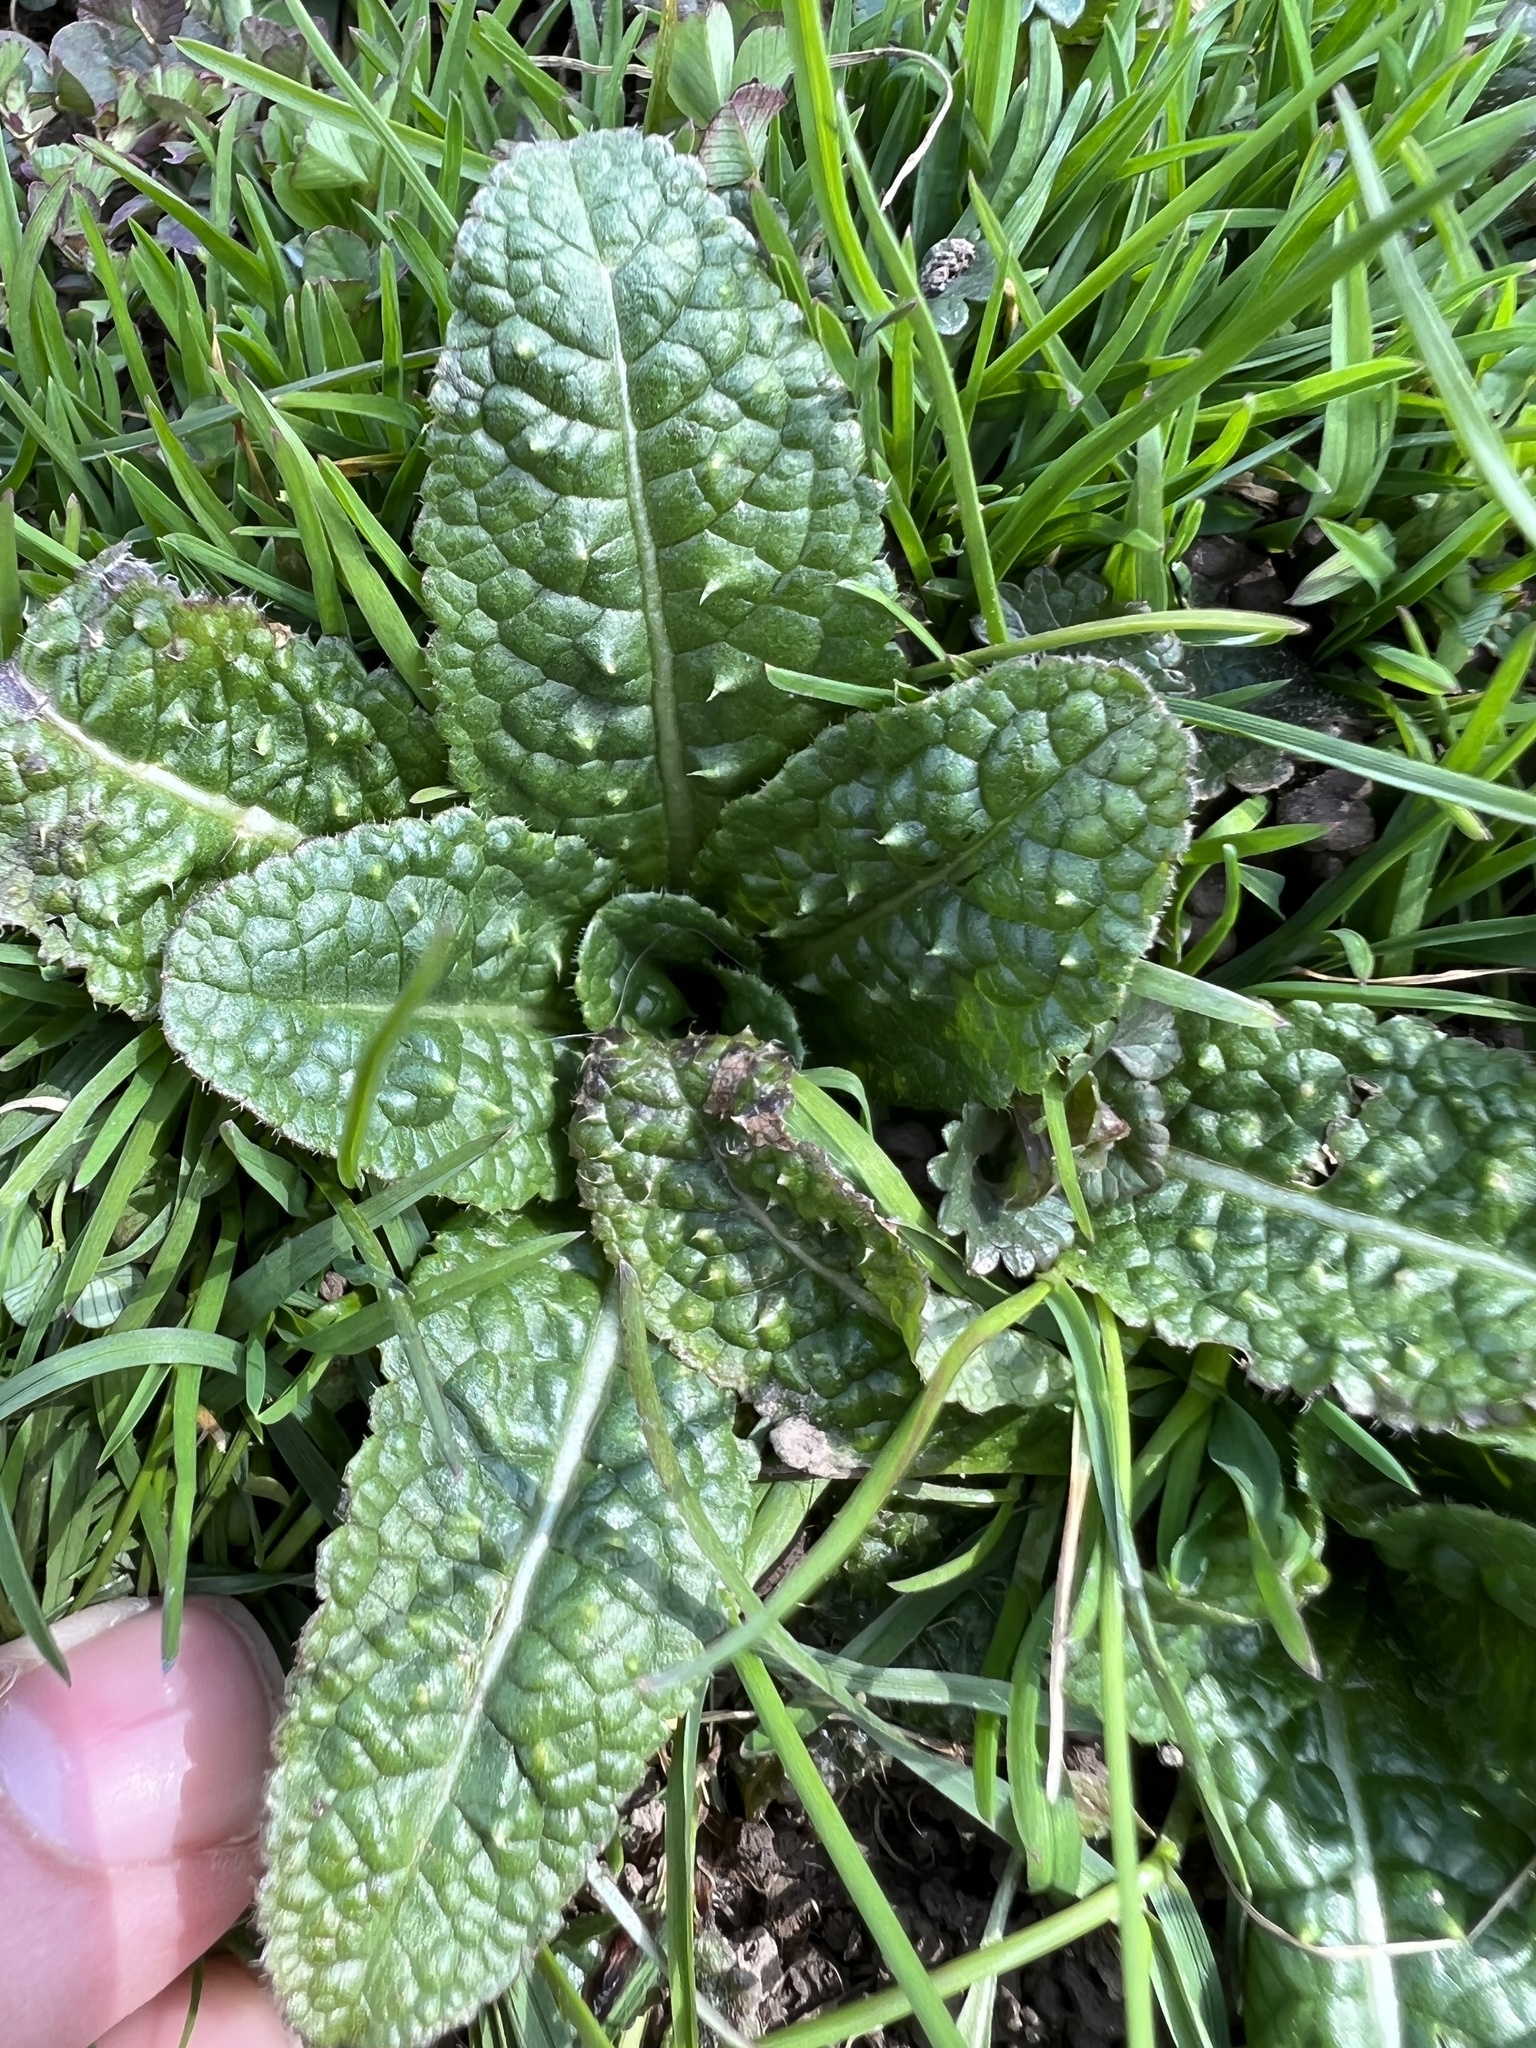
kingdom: Plantae
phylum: Tracheophyta
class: Magnoliopsida
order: Dipsacales
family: Caprifoliaceae
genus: Dipsacus
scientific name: Dipsacus fullonum
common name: Teasel
